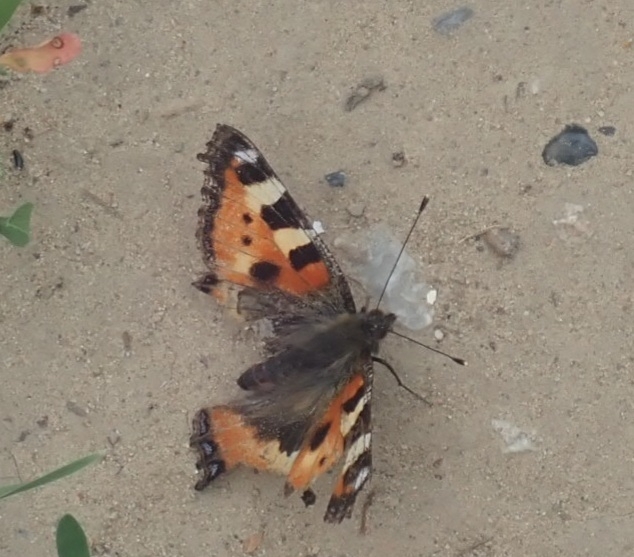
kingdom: Animalia
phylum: Arthropoda
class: Insecta
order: Lepidoptera
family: Nymphalidae
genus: Aglais
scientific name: Aglais urticae
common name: Small tortoiseshell
